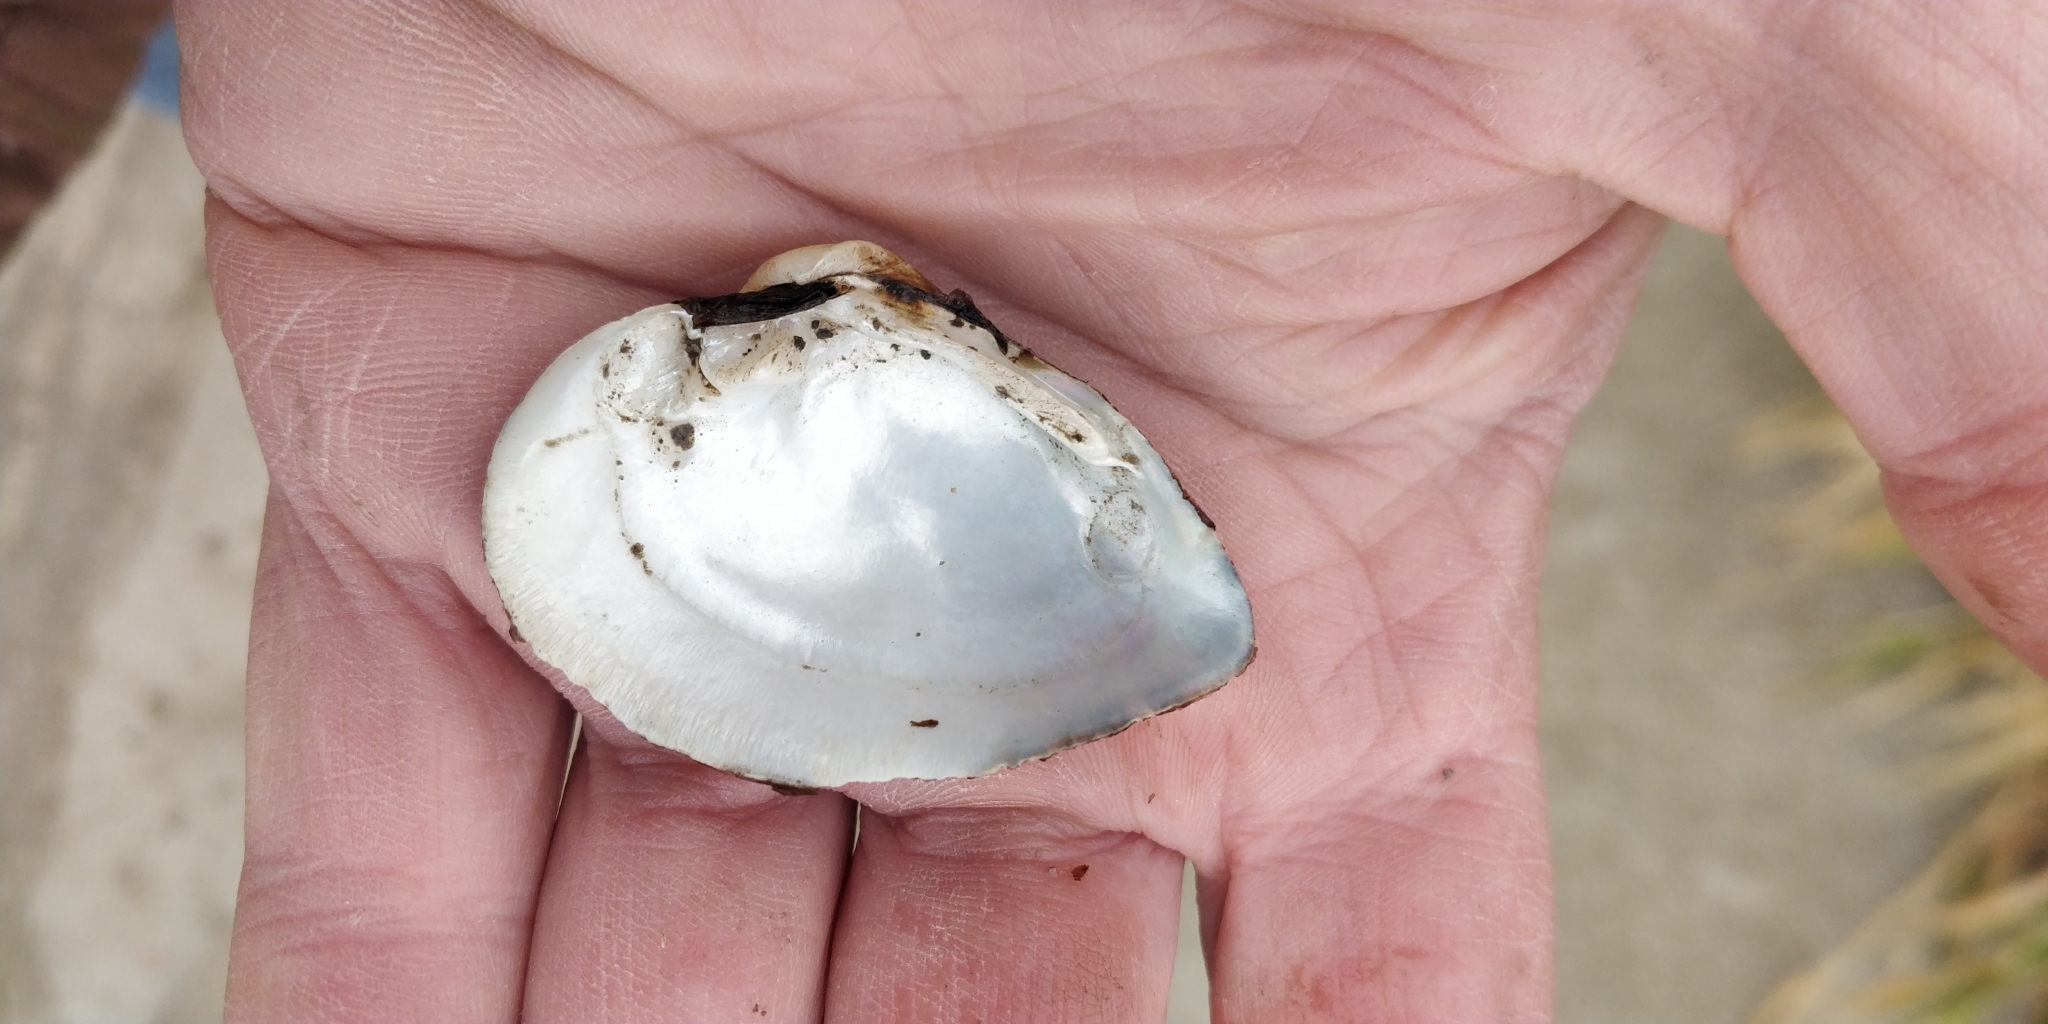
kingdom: Animalia
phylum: Mollusca
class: Bivalvia
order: Unionida
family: Unionidae
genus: Truncilla
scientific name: Truncilla truncata
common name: Deertoe
